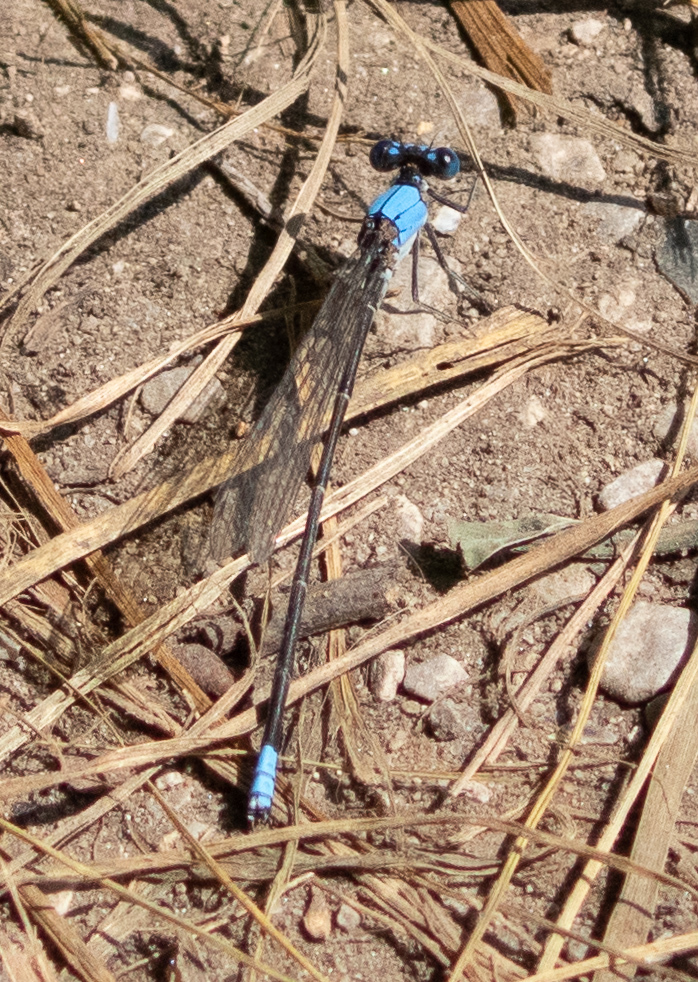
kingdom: Animalia
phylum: Arthropoda
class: Insecta
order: Odonata
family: Coenagrionidae
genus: Argia
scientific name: Argia apicalis
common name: Blue-fronted dancer
